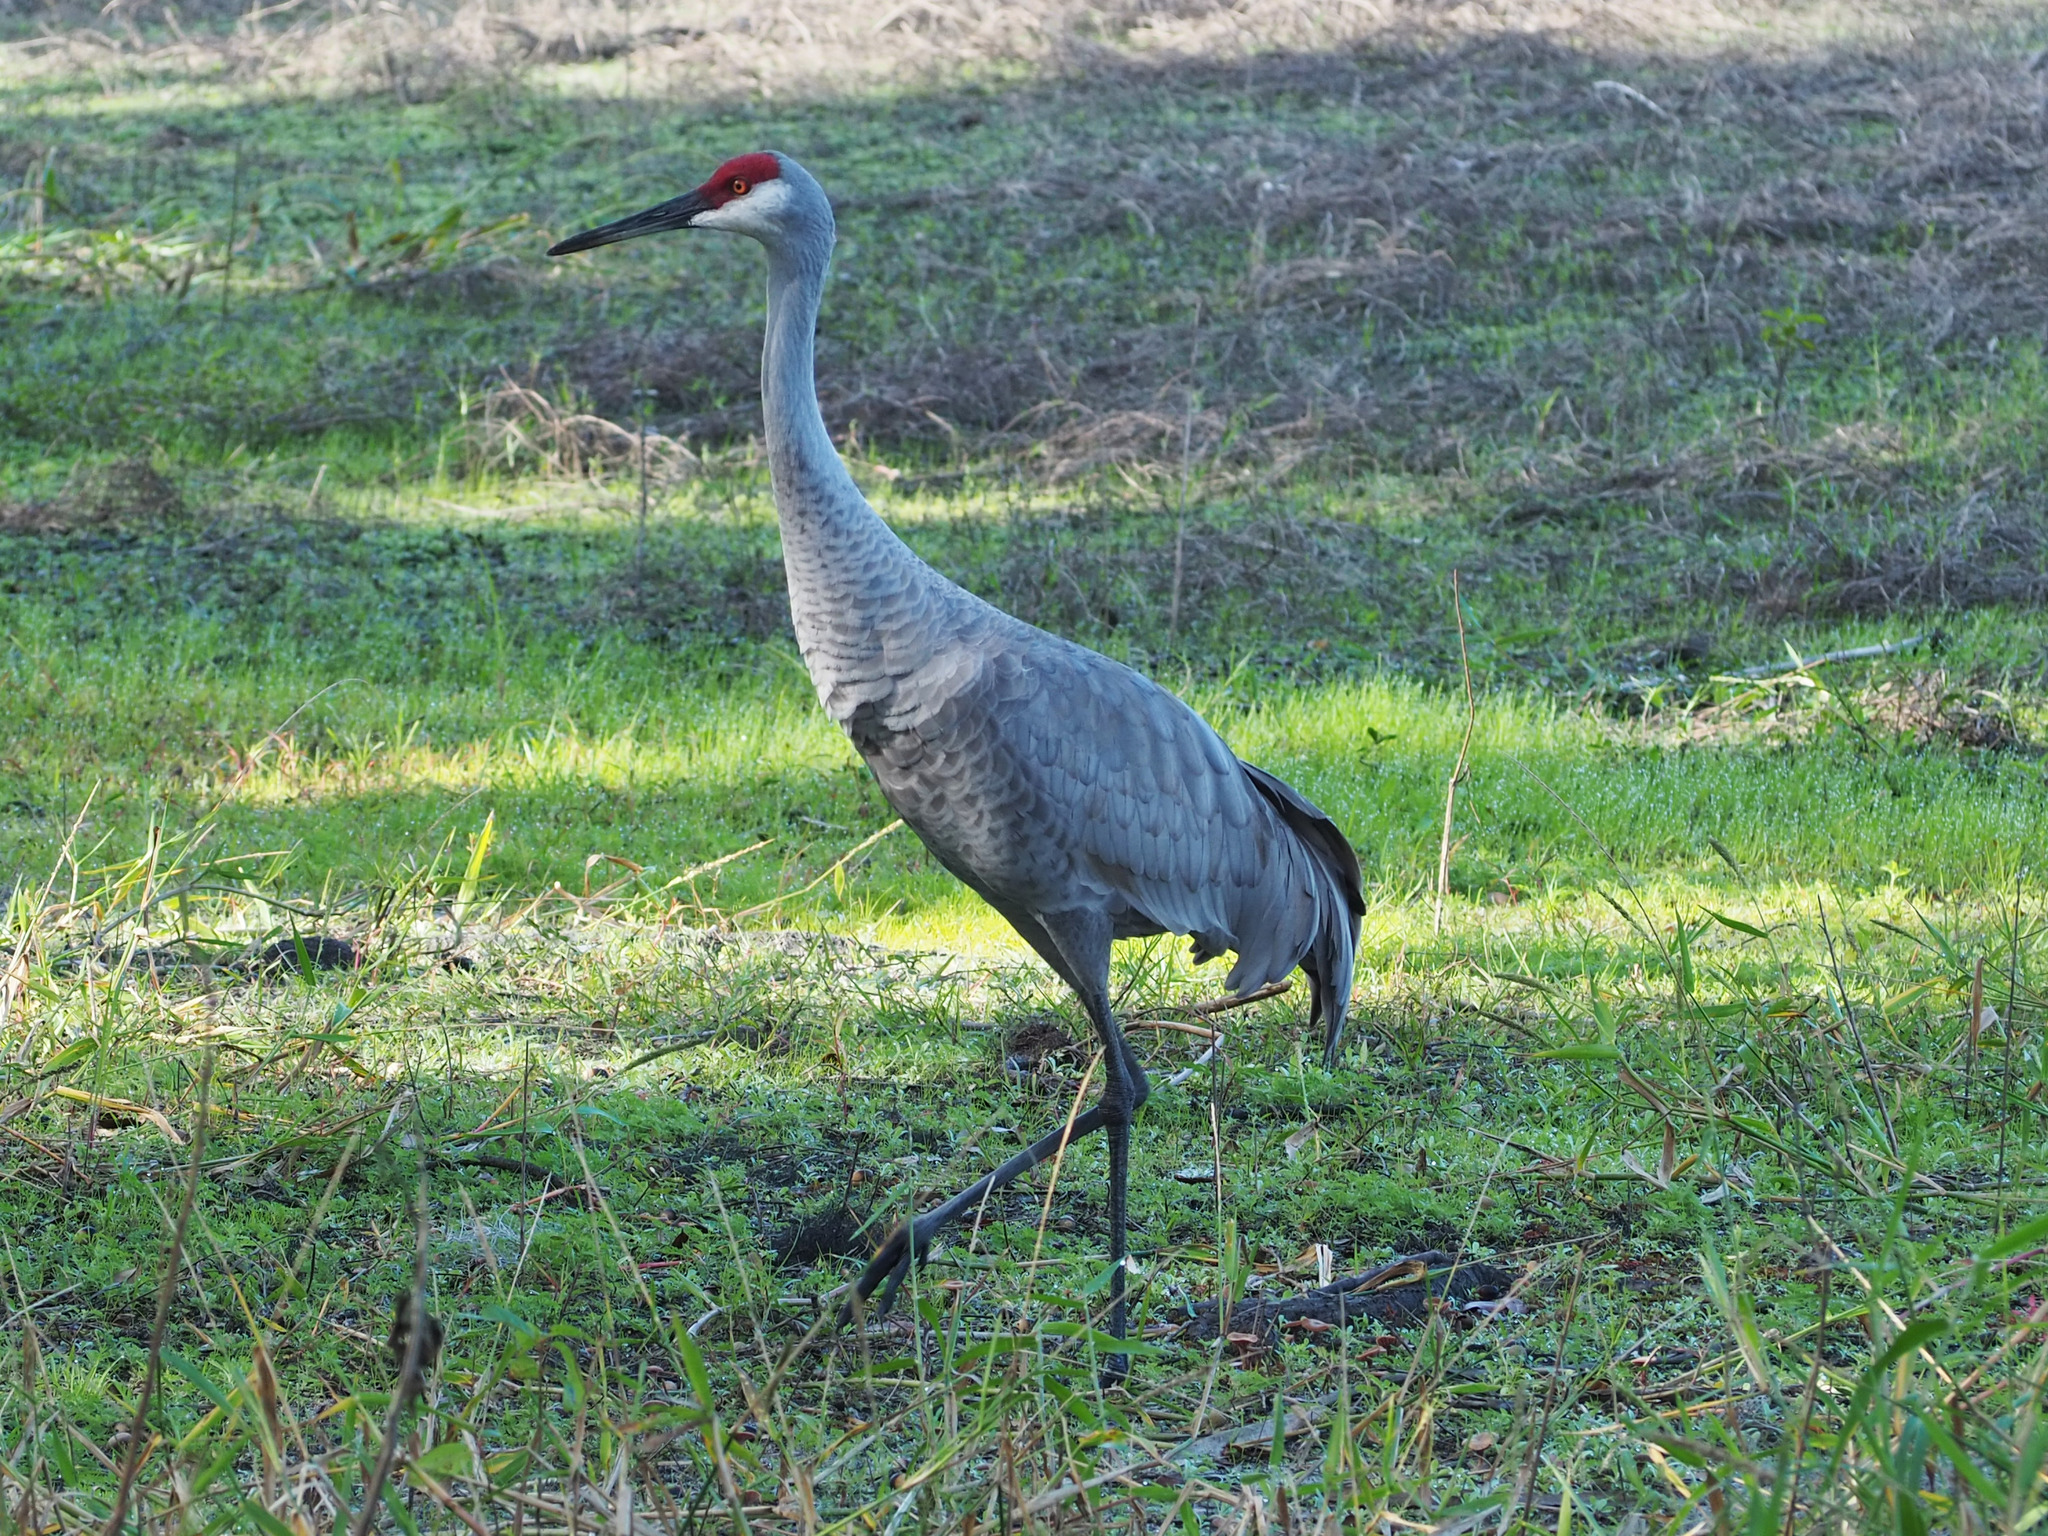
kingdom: Animalia
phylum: Chordata
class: Aves
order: Gruiformes
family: Gruidae
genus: Grus
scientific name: Grus canadensis
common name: Sandhill crane
